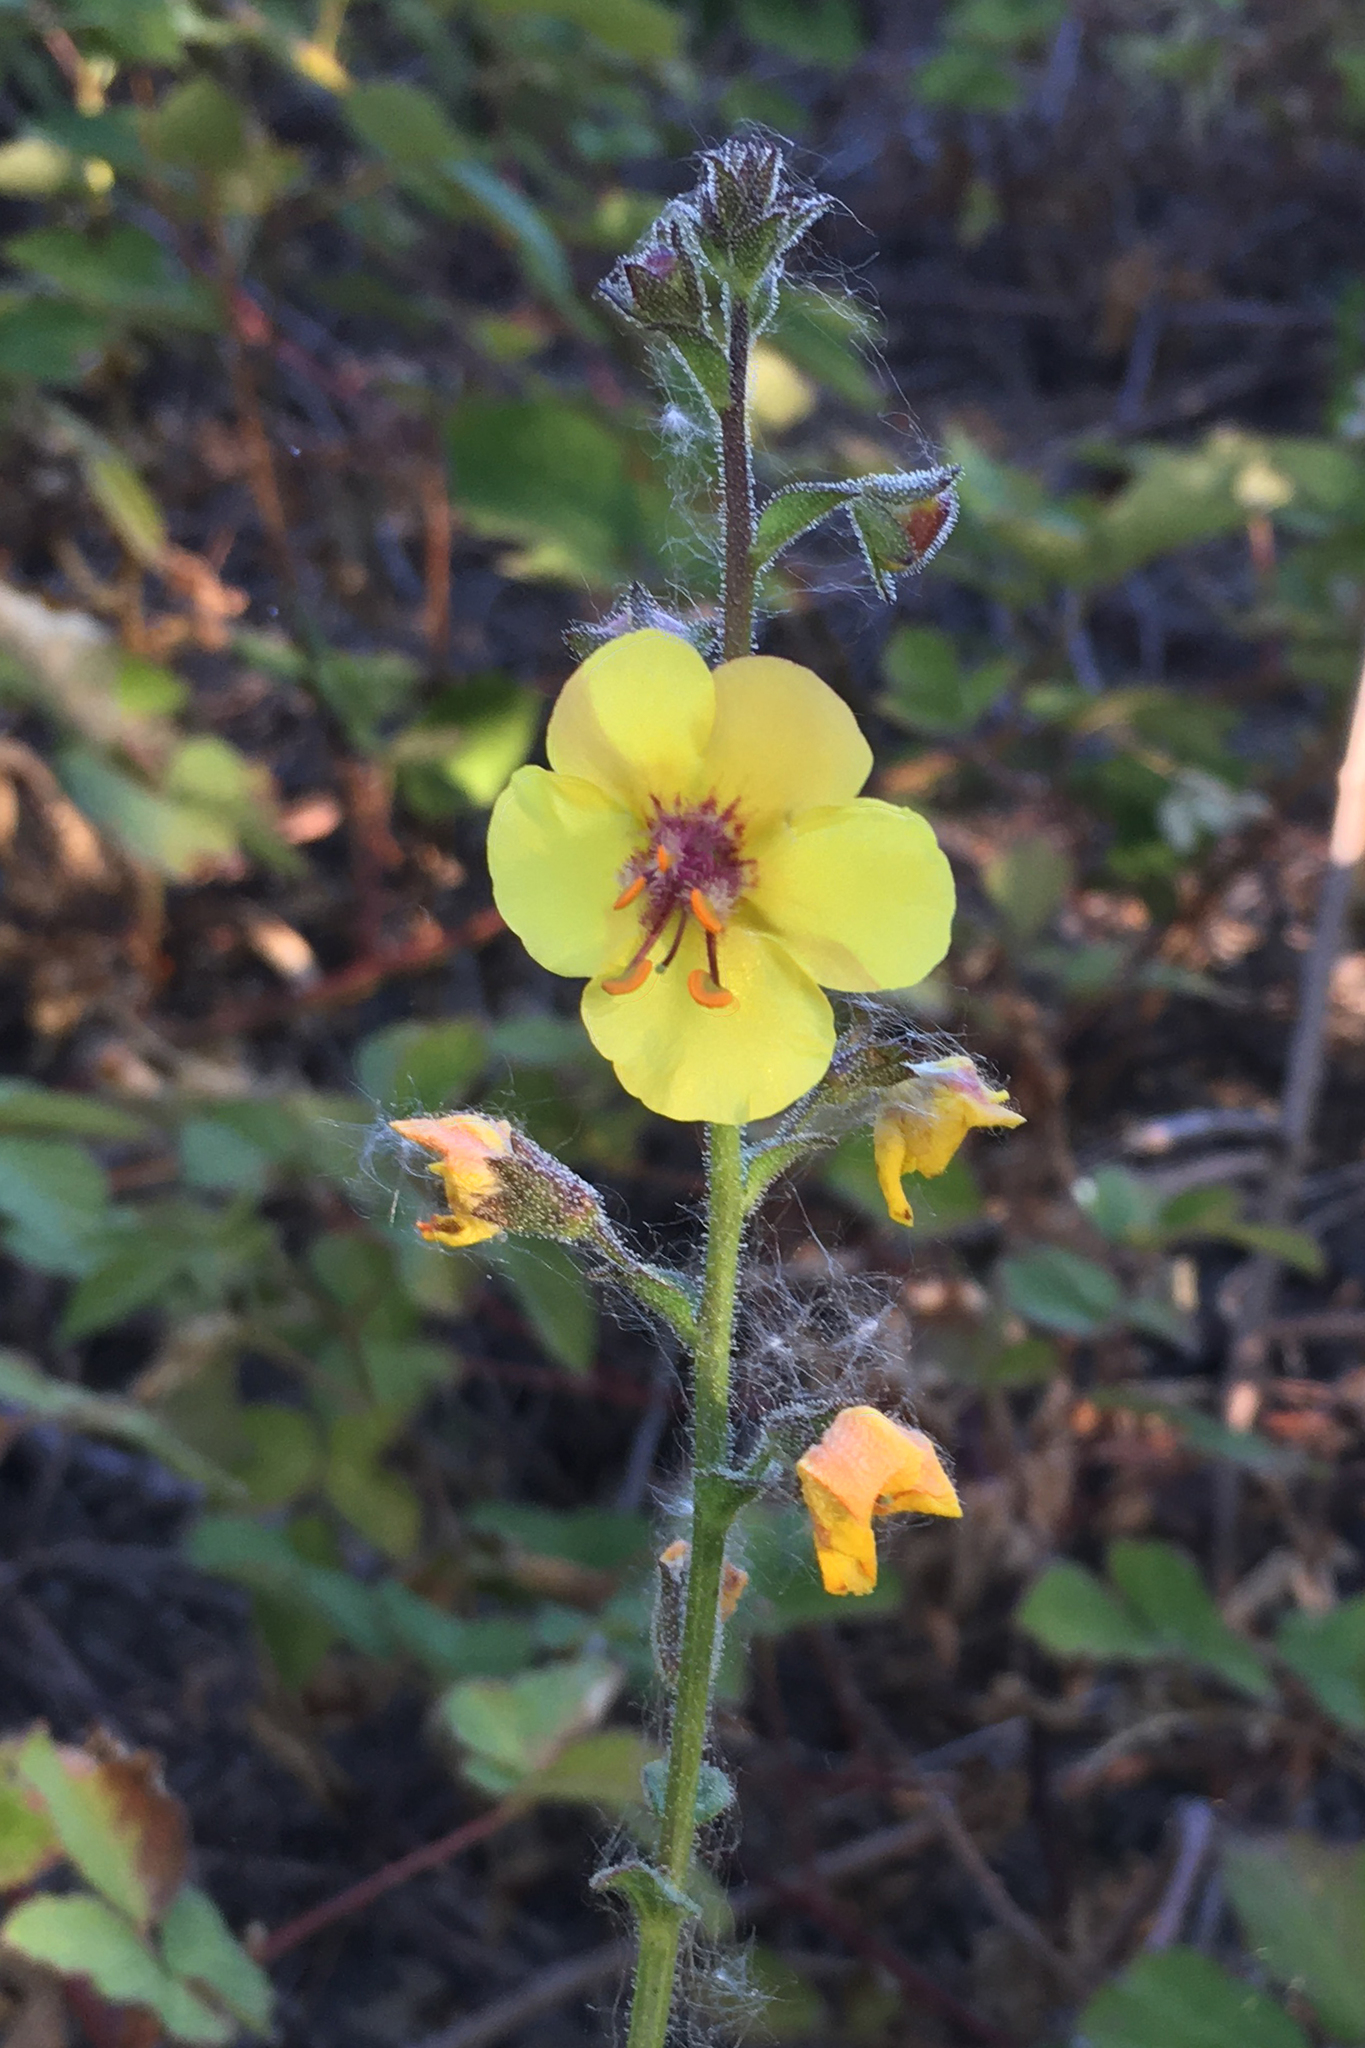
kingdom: Plantae
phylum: Tracheophyta
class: Magnoliopsida
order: Lamiales
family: Scrophulariaceae
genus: Verbascum
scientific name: Verbascum blattaria
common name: Moth mullein
